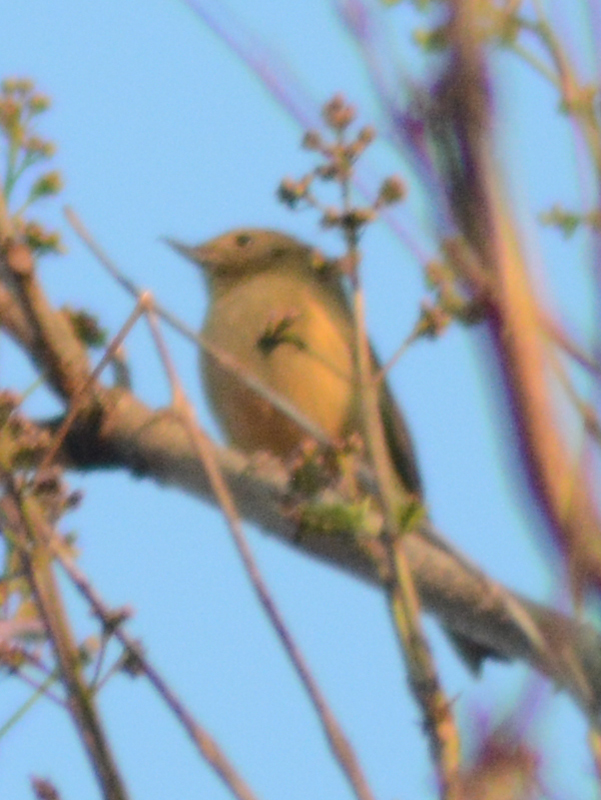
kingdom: Animalia
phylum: Chordata
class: Aves
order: Passeriformes
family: Thraupidae
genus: Diglossa
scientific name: Diglossa baritula
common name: Cinnamon-bellied flowerpiercer
